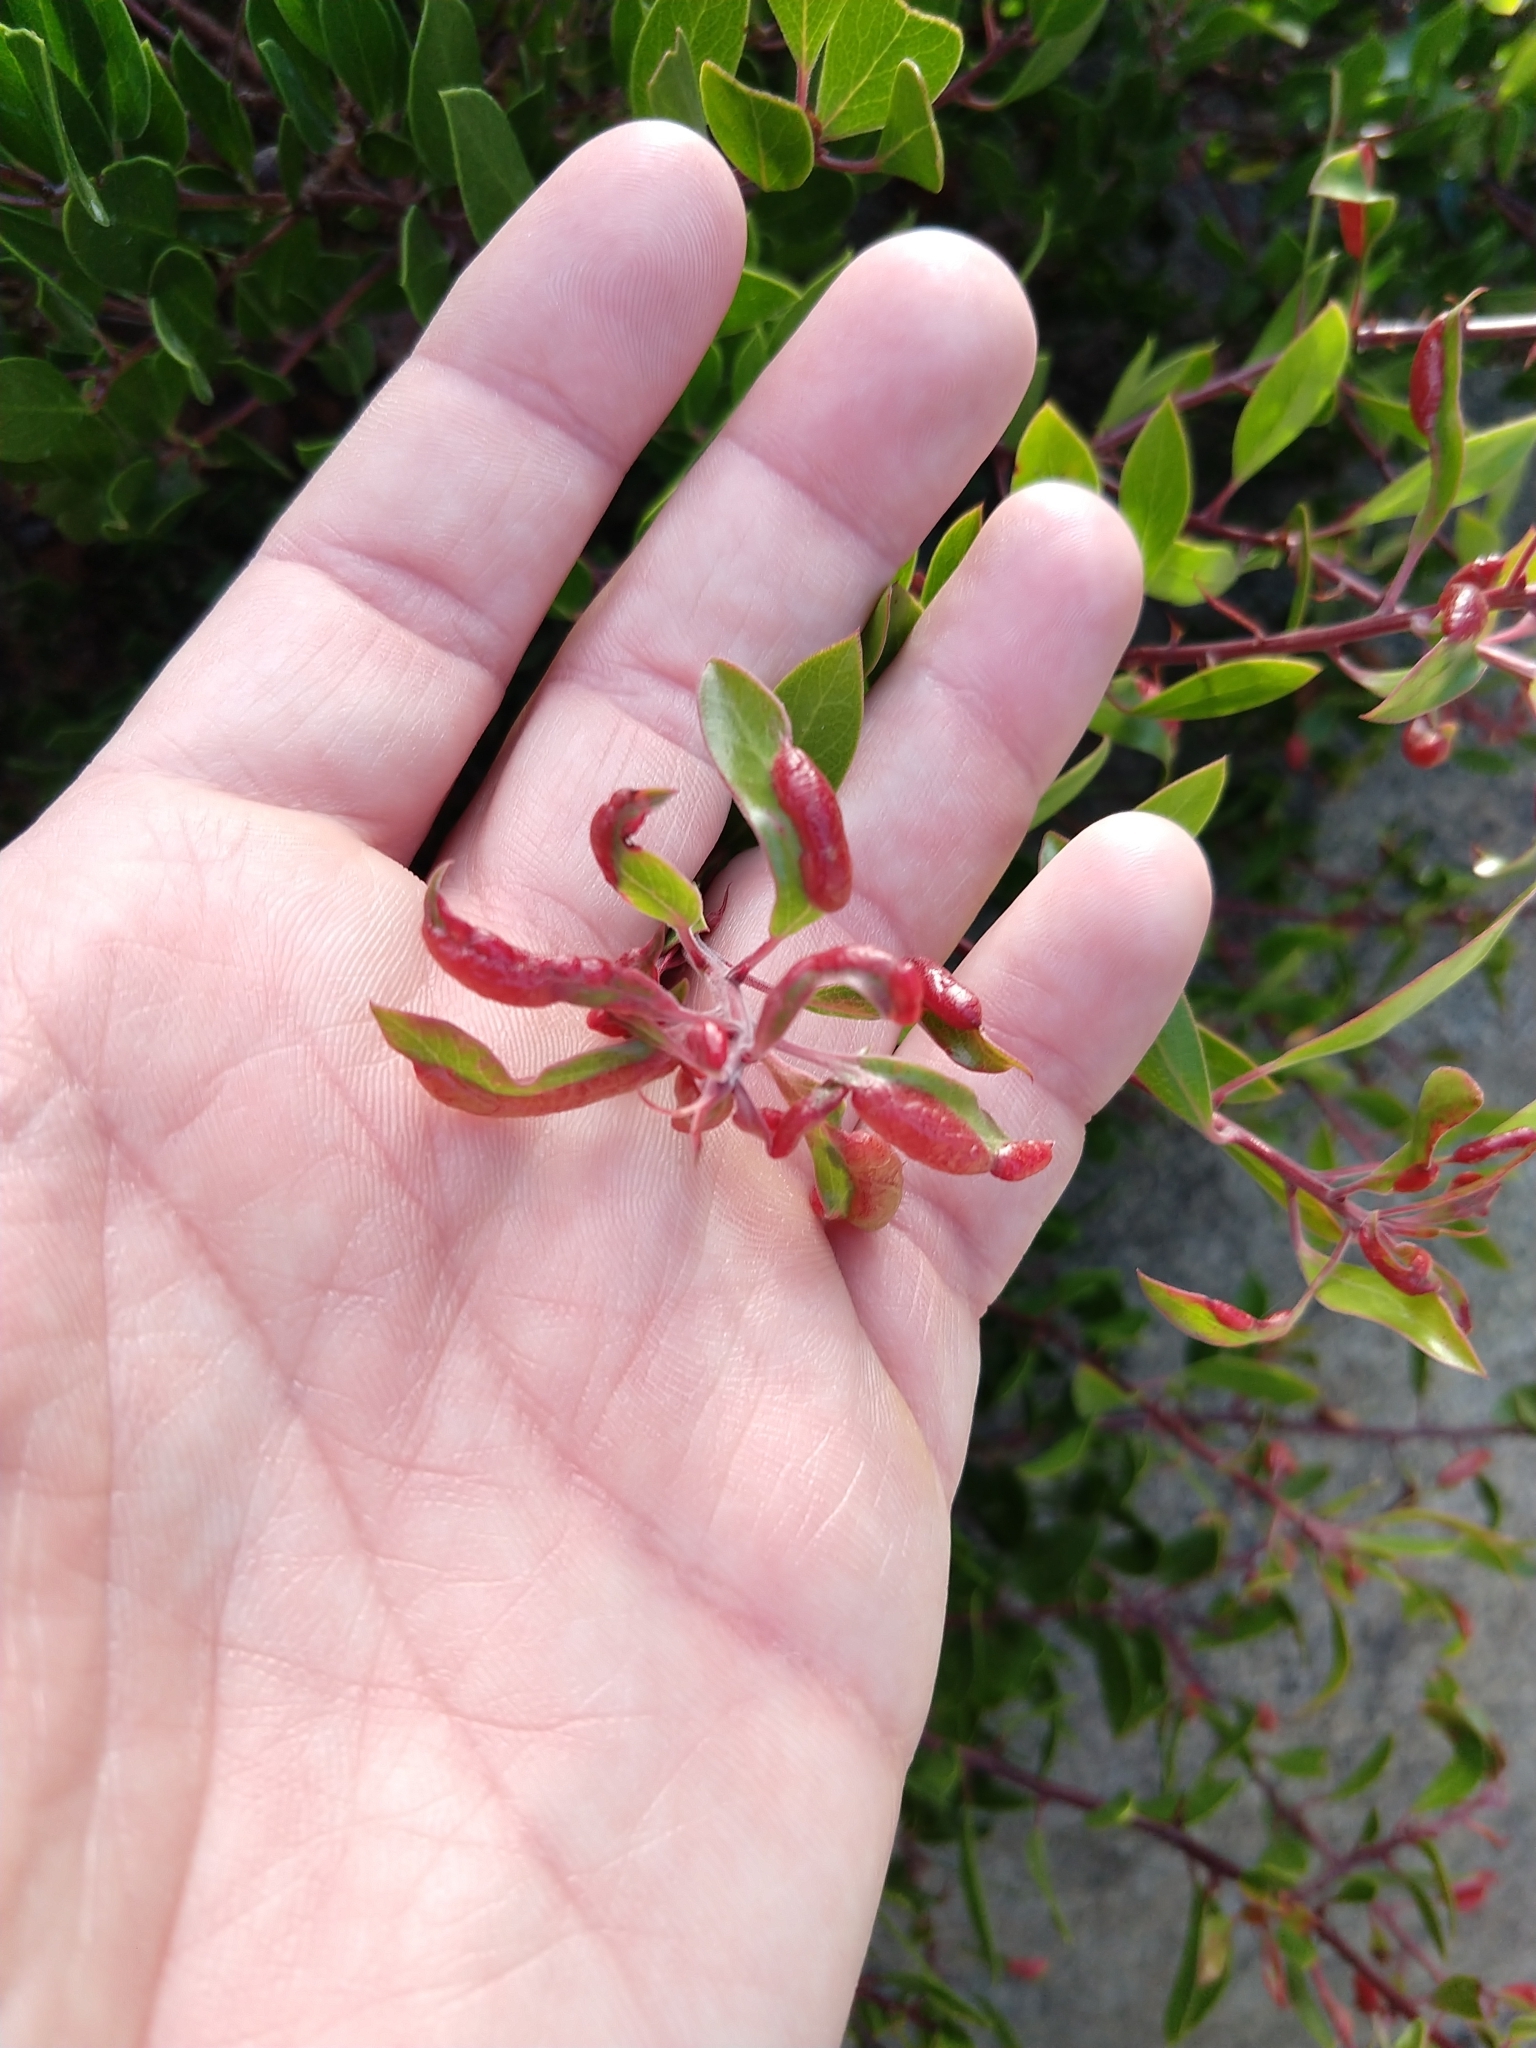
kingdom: Animalia
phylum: Arthropoda
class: Insecta
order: Hemiptera
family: Aphididae
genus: Tamalia
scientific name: Tamalia coweni
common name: Manzanita leafgall aphid
